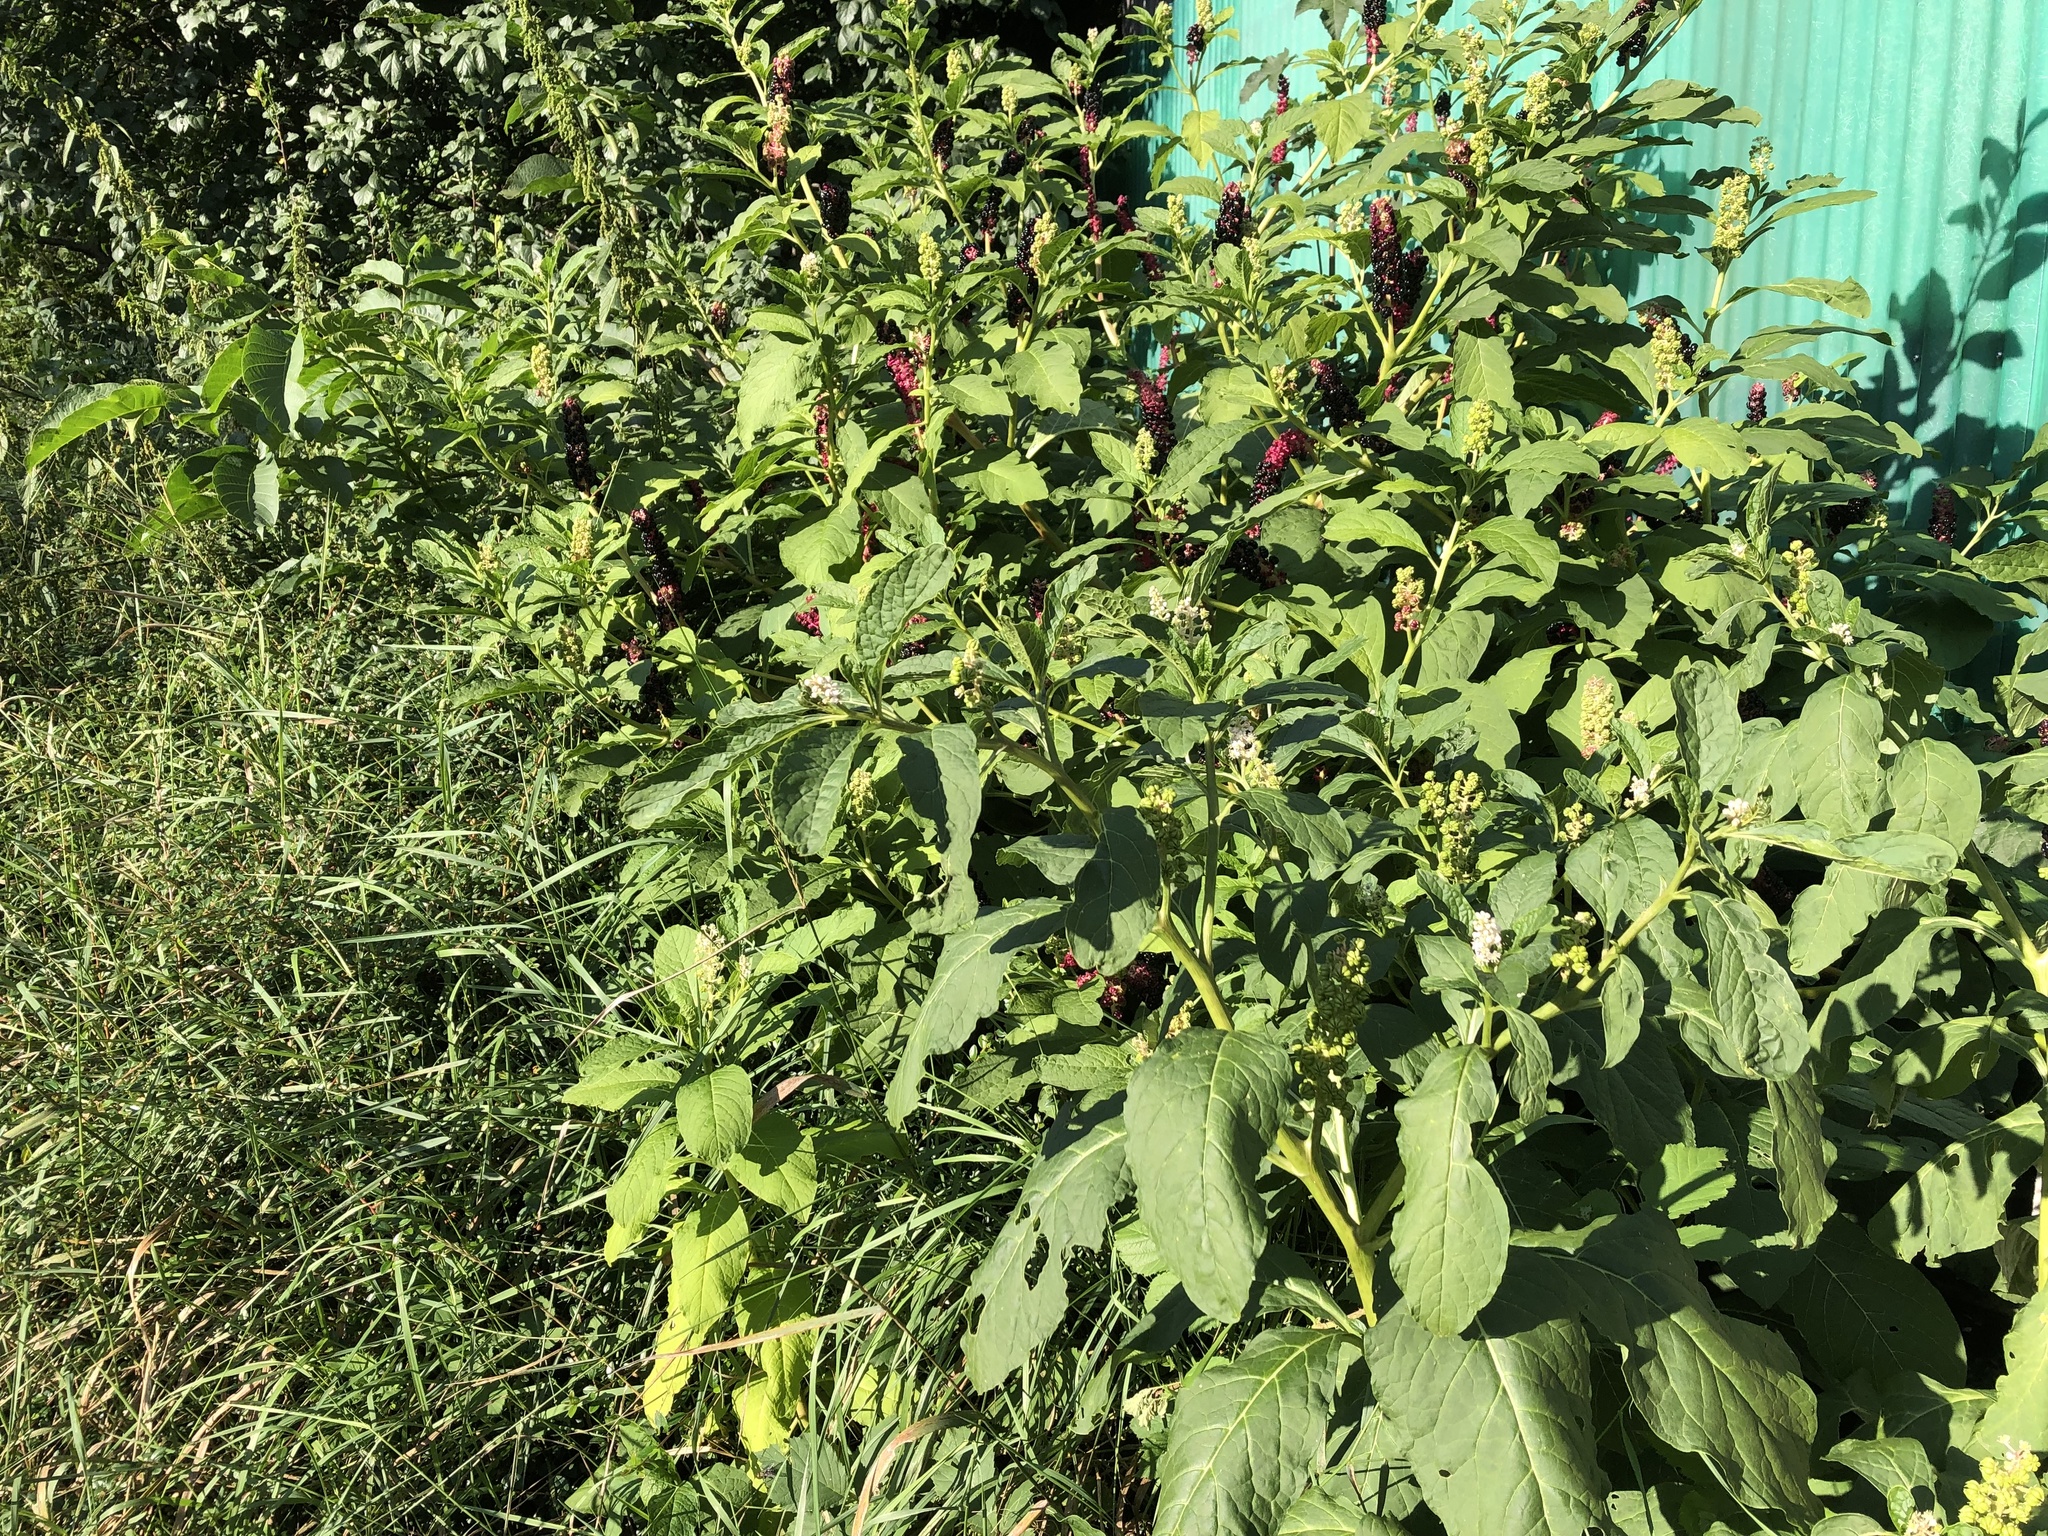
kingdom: Plantae
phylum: Tracheophyta
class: Magnoliopsida
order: Caryophyllales
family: Phytolaccaceae
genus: Phytolacca
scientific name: Phytolacca acinosa
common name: Indian pokeweed
